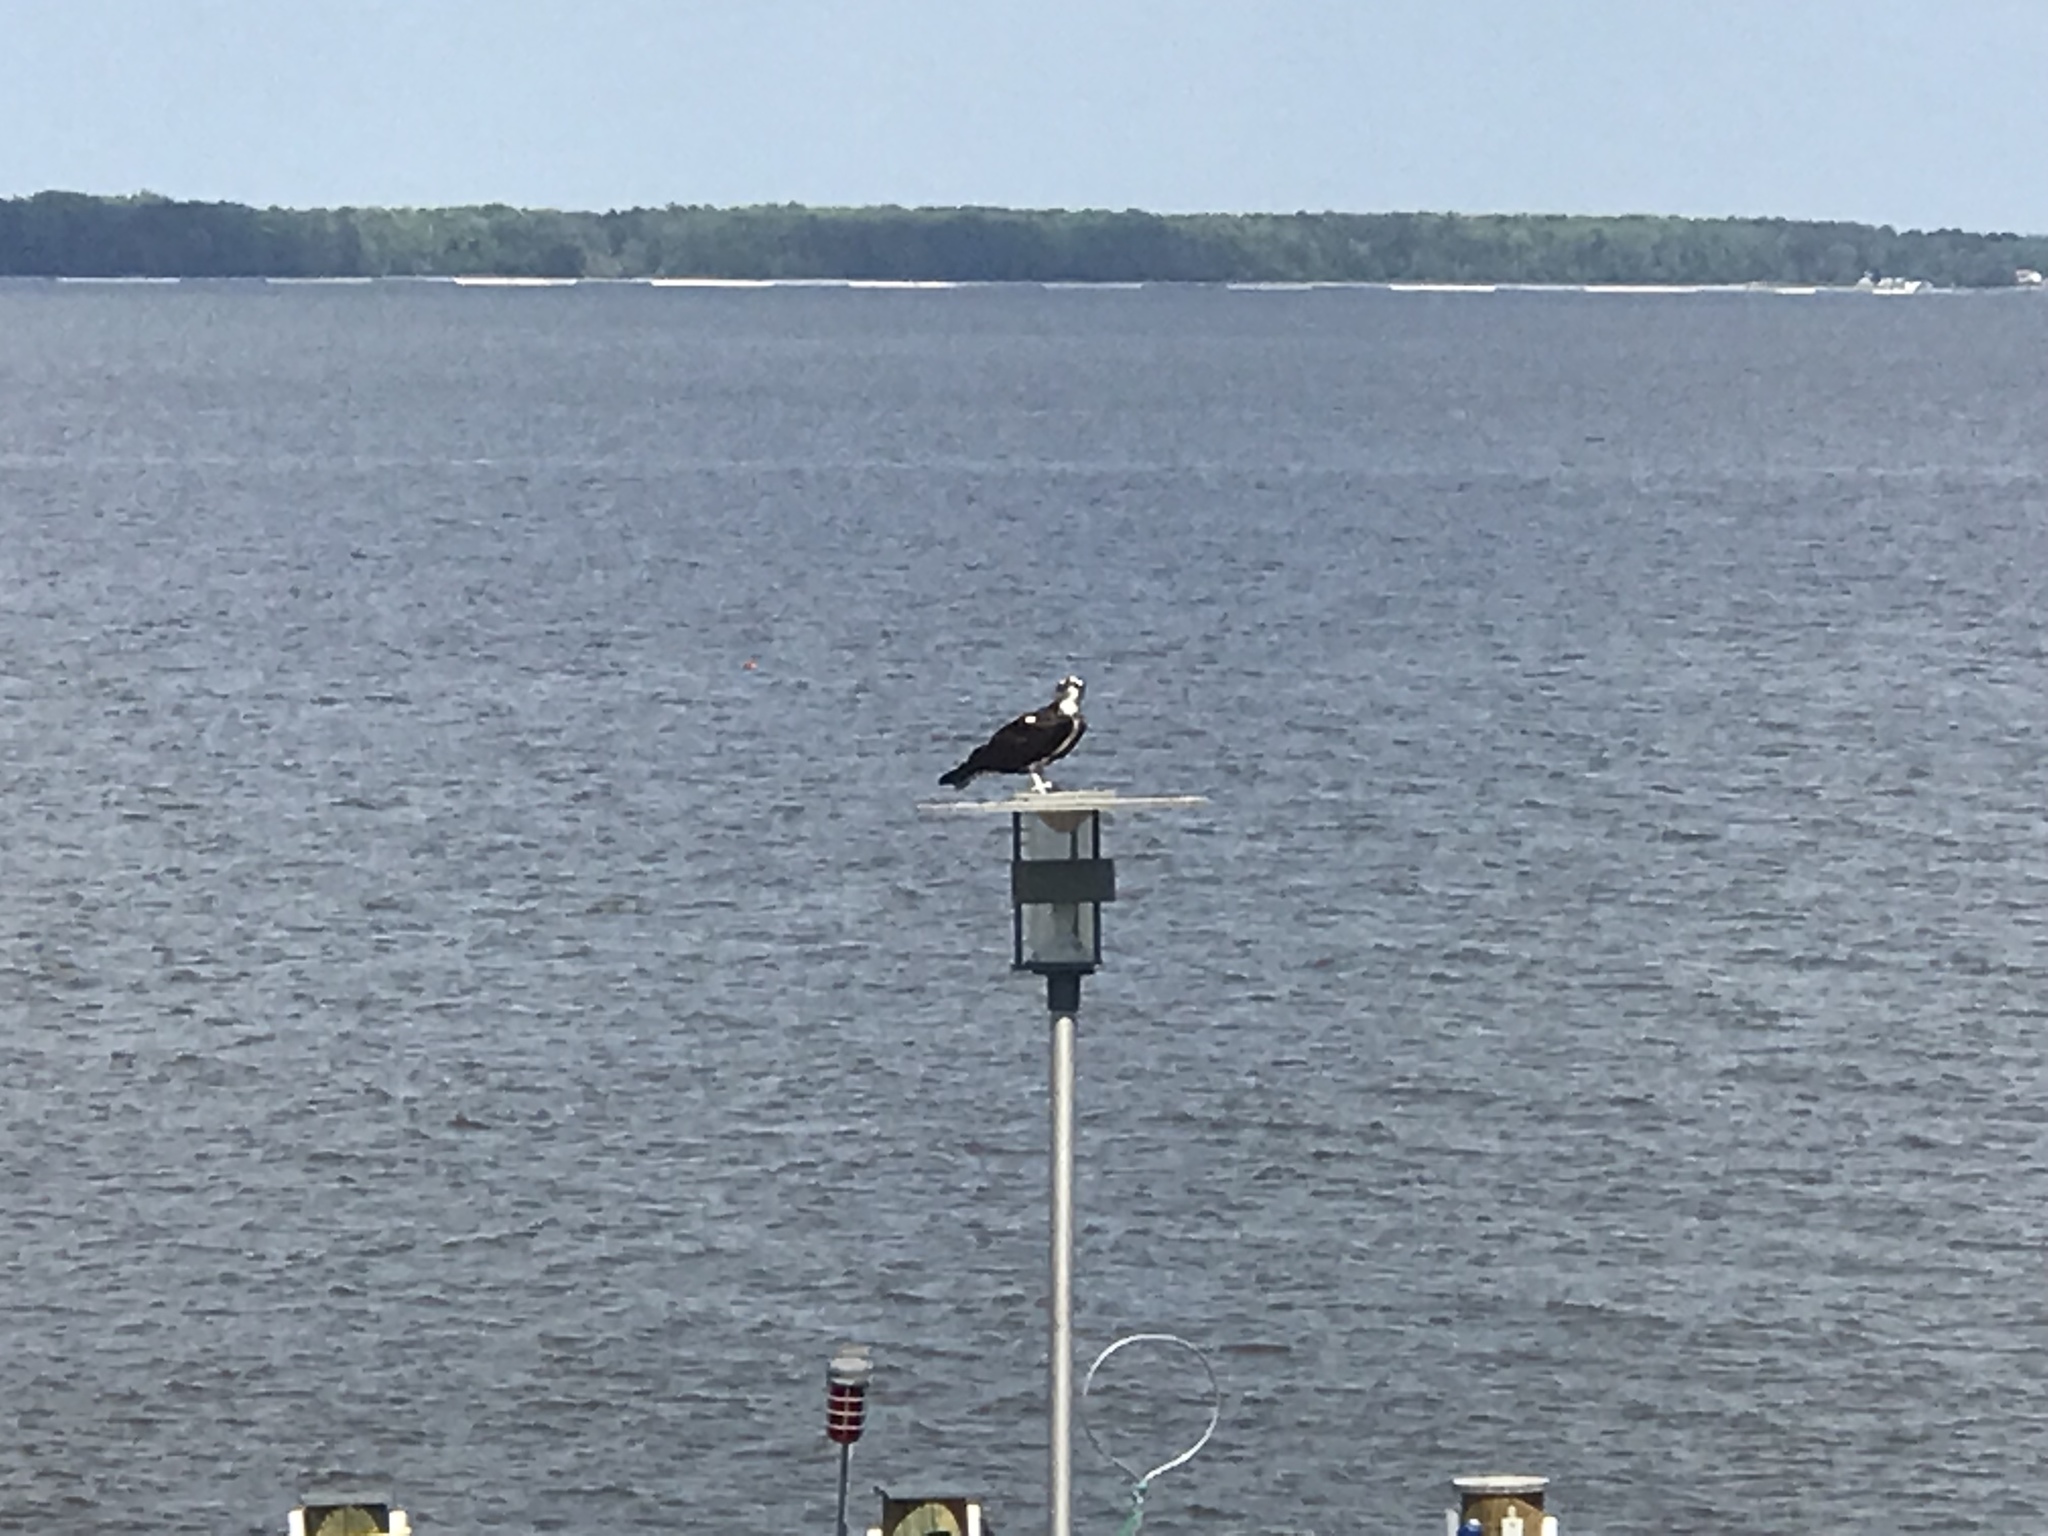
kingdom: Animalia
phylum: Chordata
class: Aves
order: Accipitriformes
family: Pandionidae
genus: Pandion
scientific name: Pandion haliaetus
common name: Osprey
